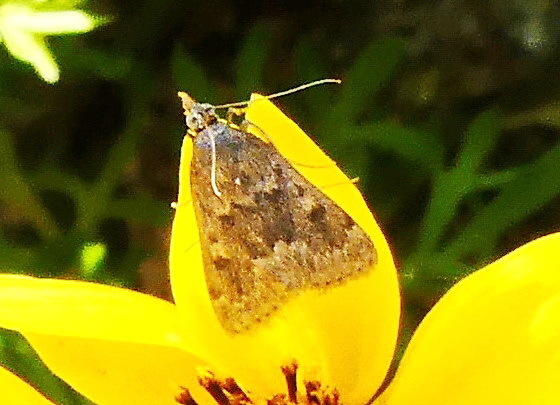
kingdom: Animalia
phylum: Arthropoda
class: Insecta
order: Lepidoptera
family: Crambidae
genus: Achyra
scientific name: Achyra rantalis
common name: Garden webworm
